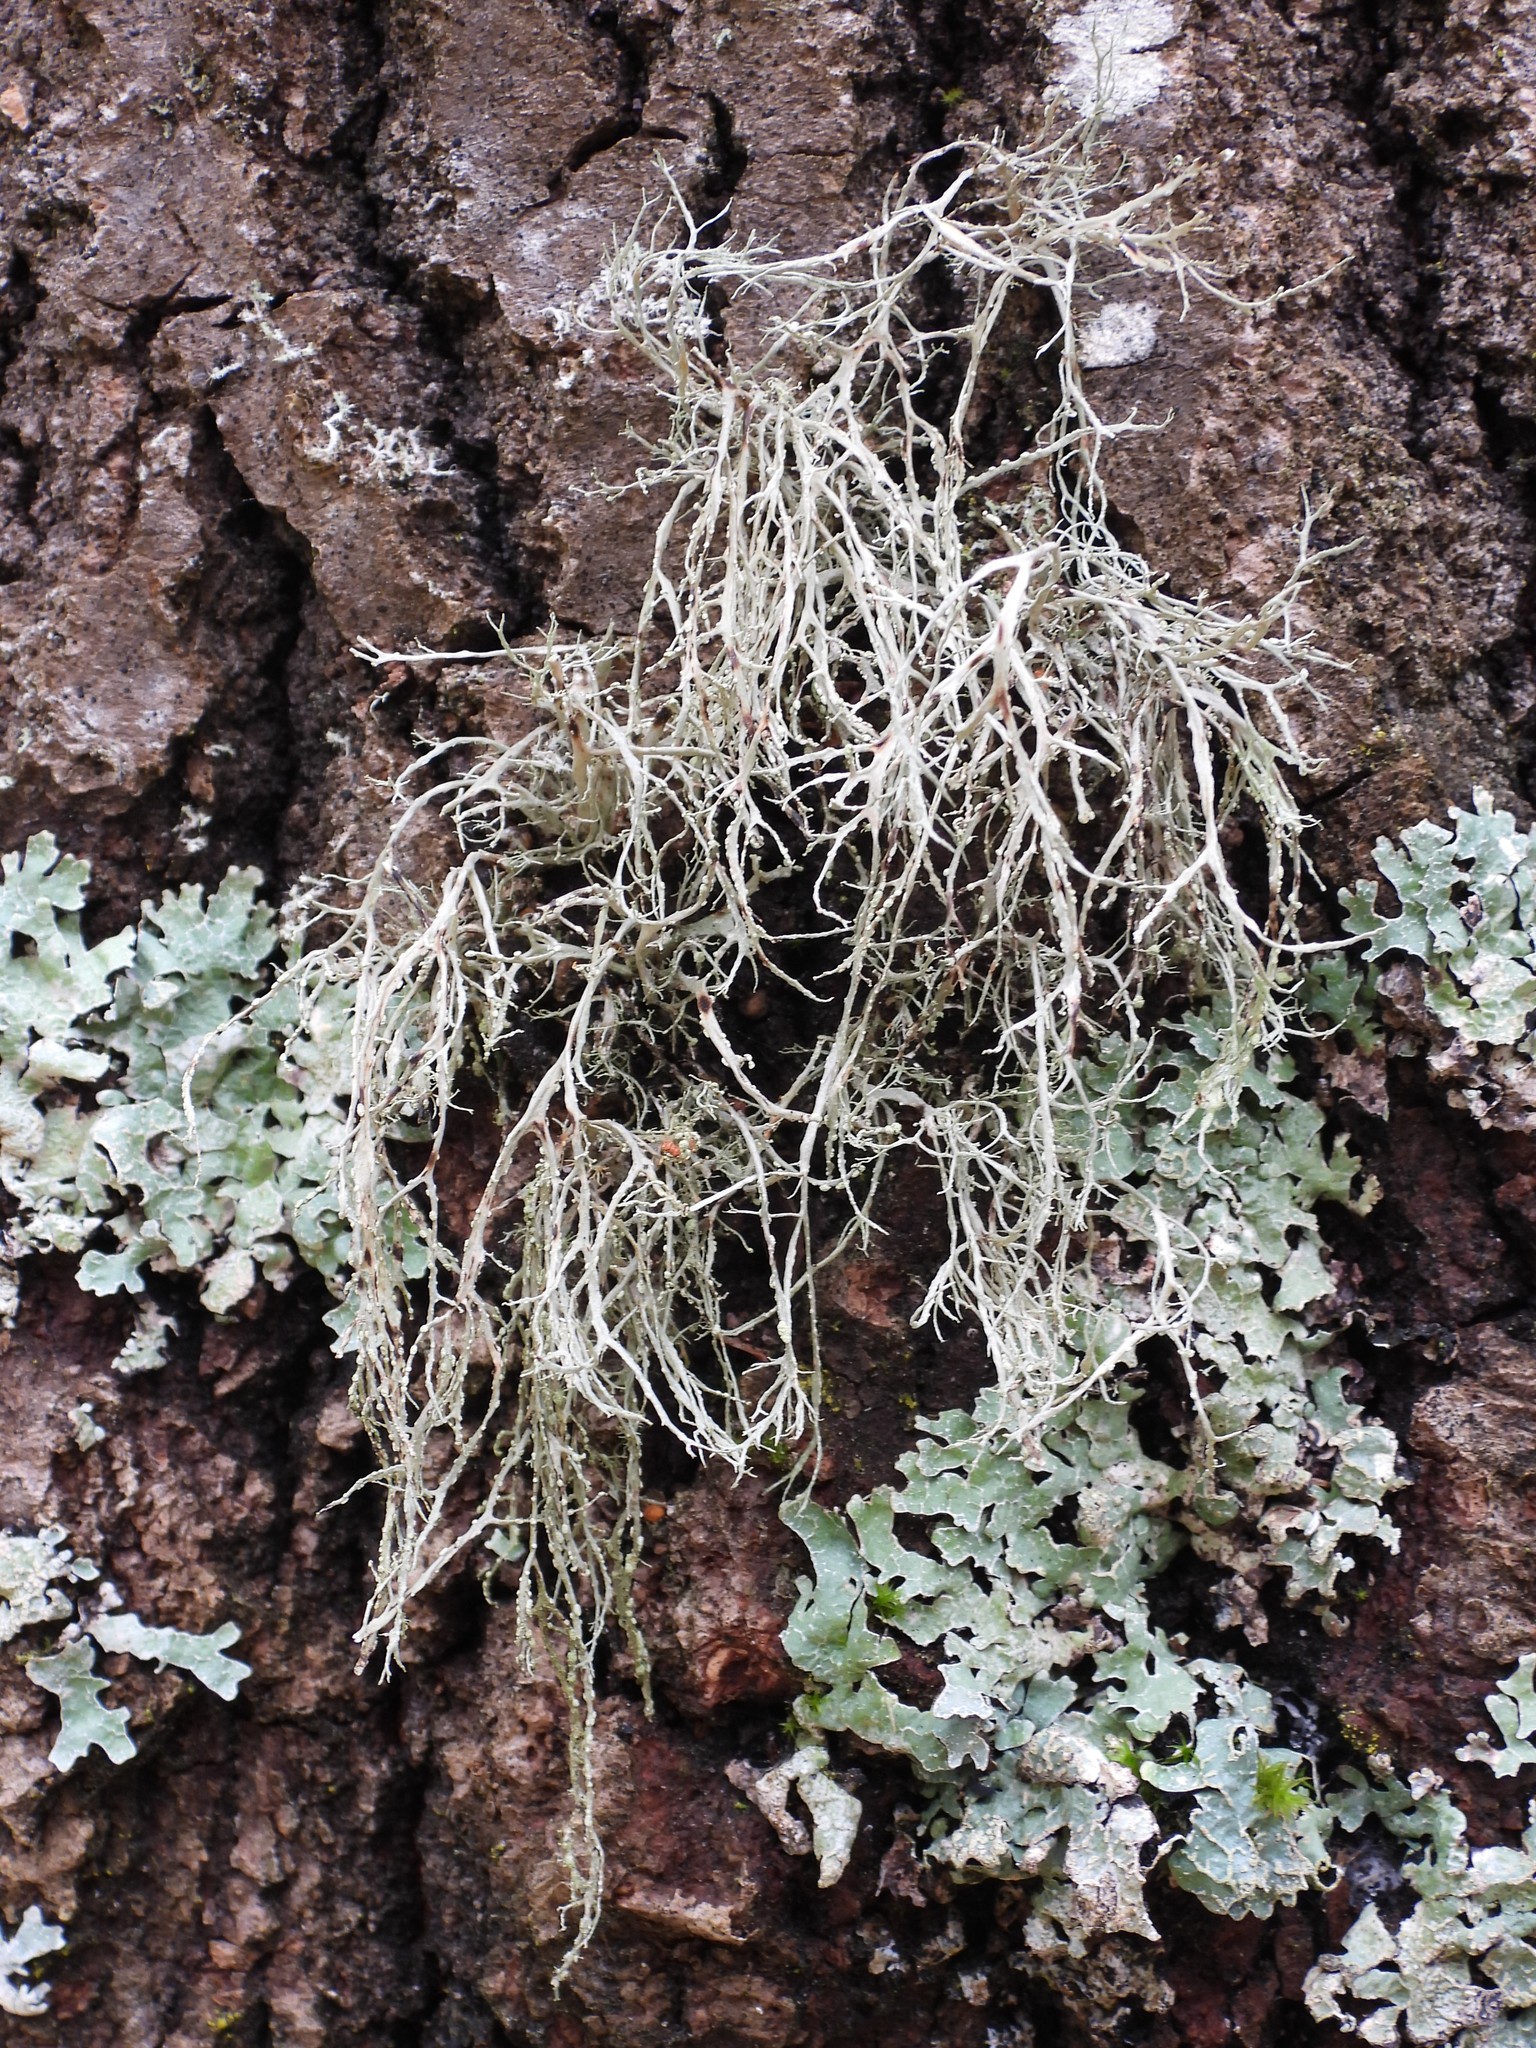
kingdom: Fungi
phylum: Ascomycota
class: Lecanoromycetes
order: Lecanorales
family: Ramalinaceae
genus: Ramalina
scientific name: Ramalina farinacea
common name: Farinose cartilage lichen
